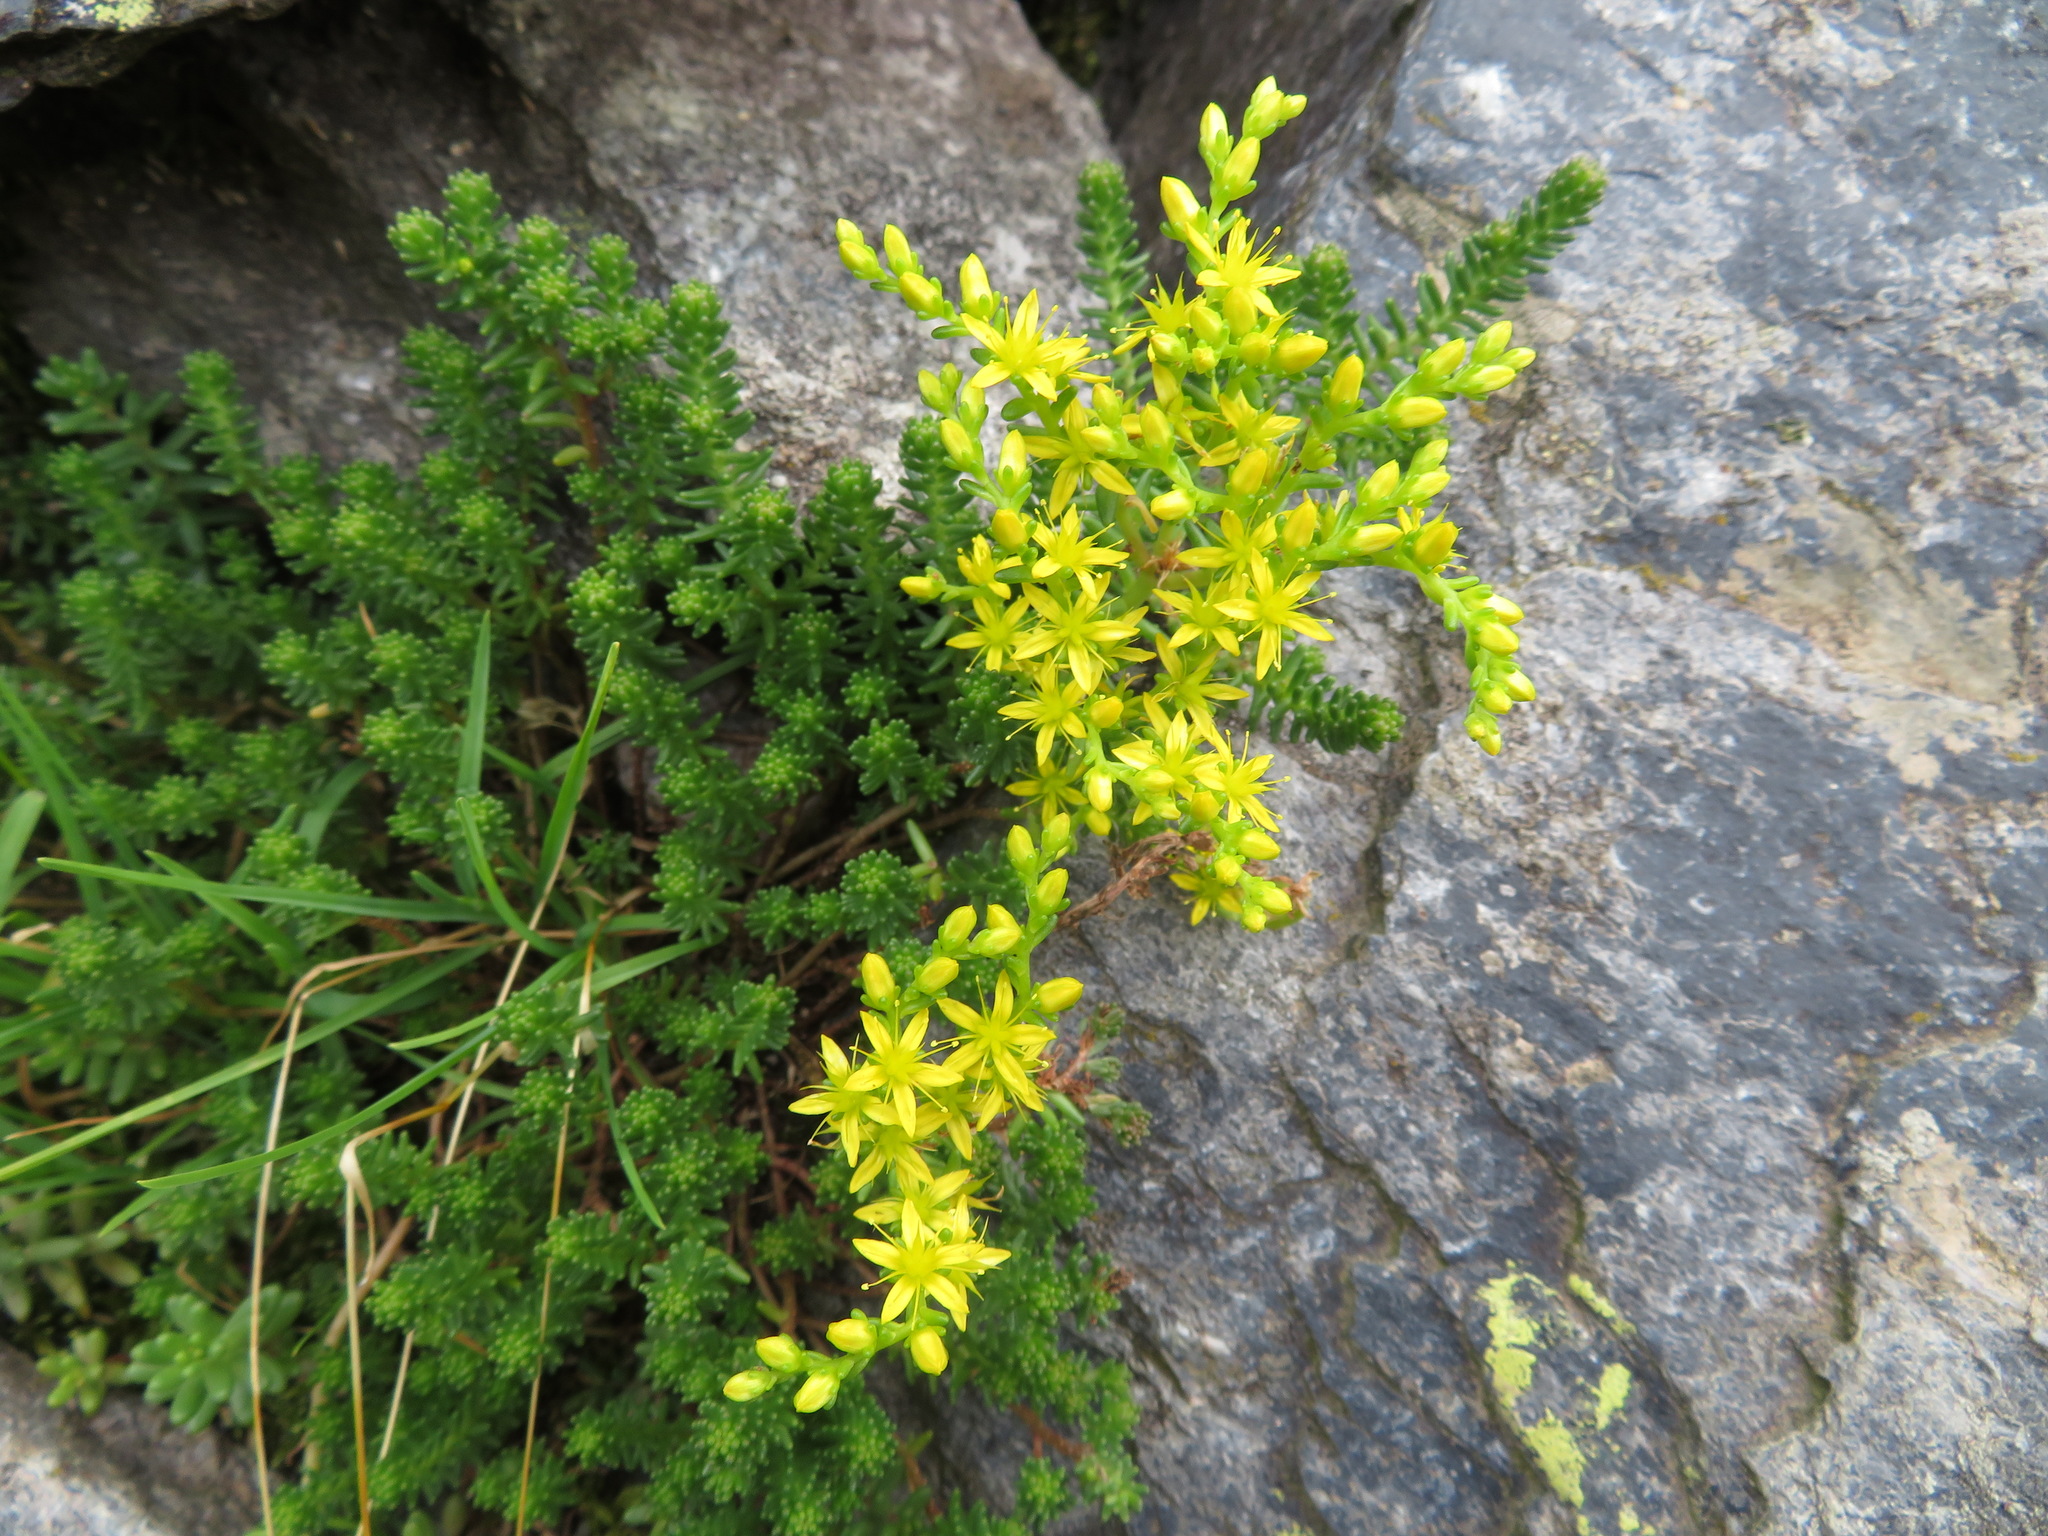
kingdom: Plantae
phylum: Tracheophyta
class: Magnoliopsida
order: Saxifragales
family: Crassulaceae
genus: Sedum
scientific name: Sedum sexangulare
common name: Tasteless stonecrop
